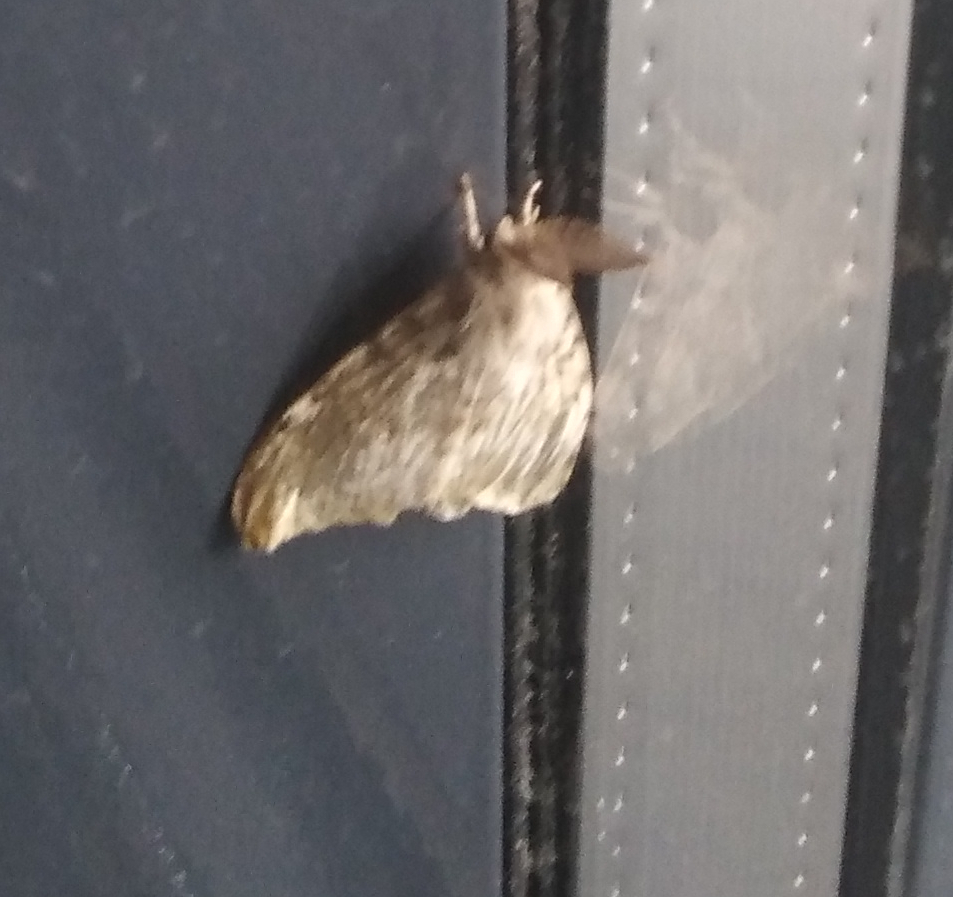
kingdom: Animalia
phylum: Arthropoda
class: Insecta
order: Lepidoptera
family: Erebidae
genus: Lymantria
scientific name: Lymantria dispar
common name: Gypsy moth
